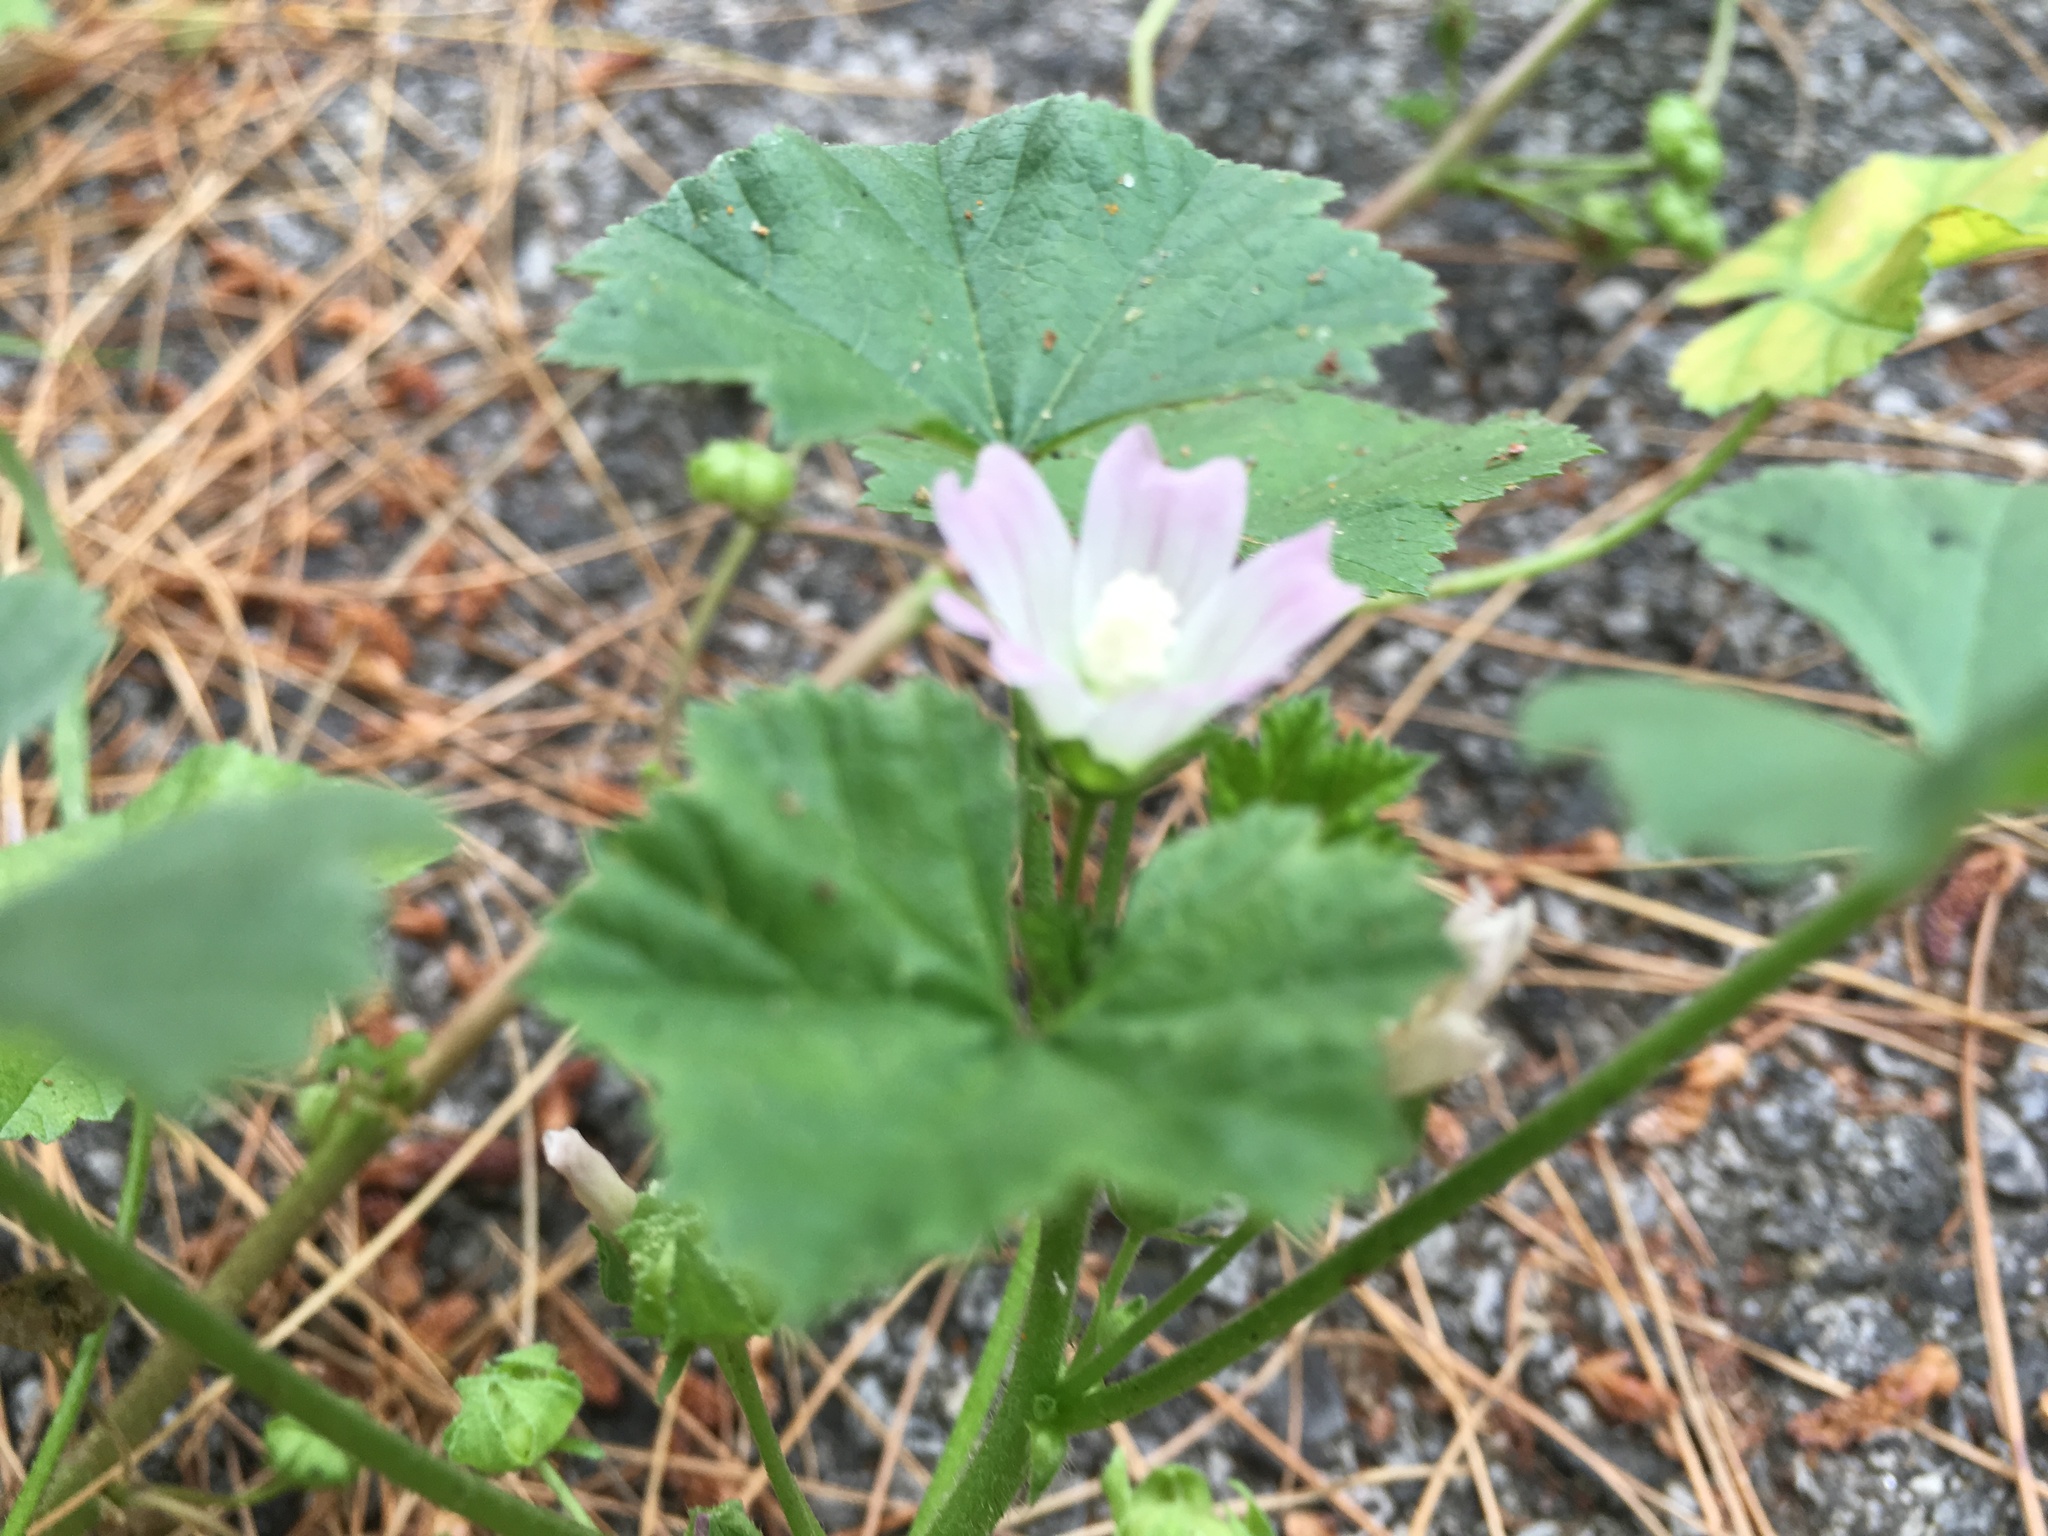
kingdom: Plantae
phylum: Tracheophyta
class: Magnoliopsida
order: Malvales
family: Malvaceae
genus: Malva
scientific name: Malva neglecta
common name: Common mallow
